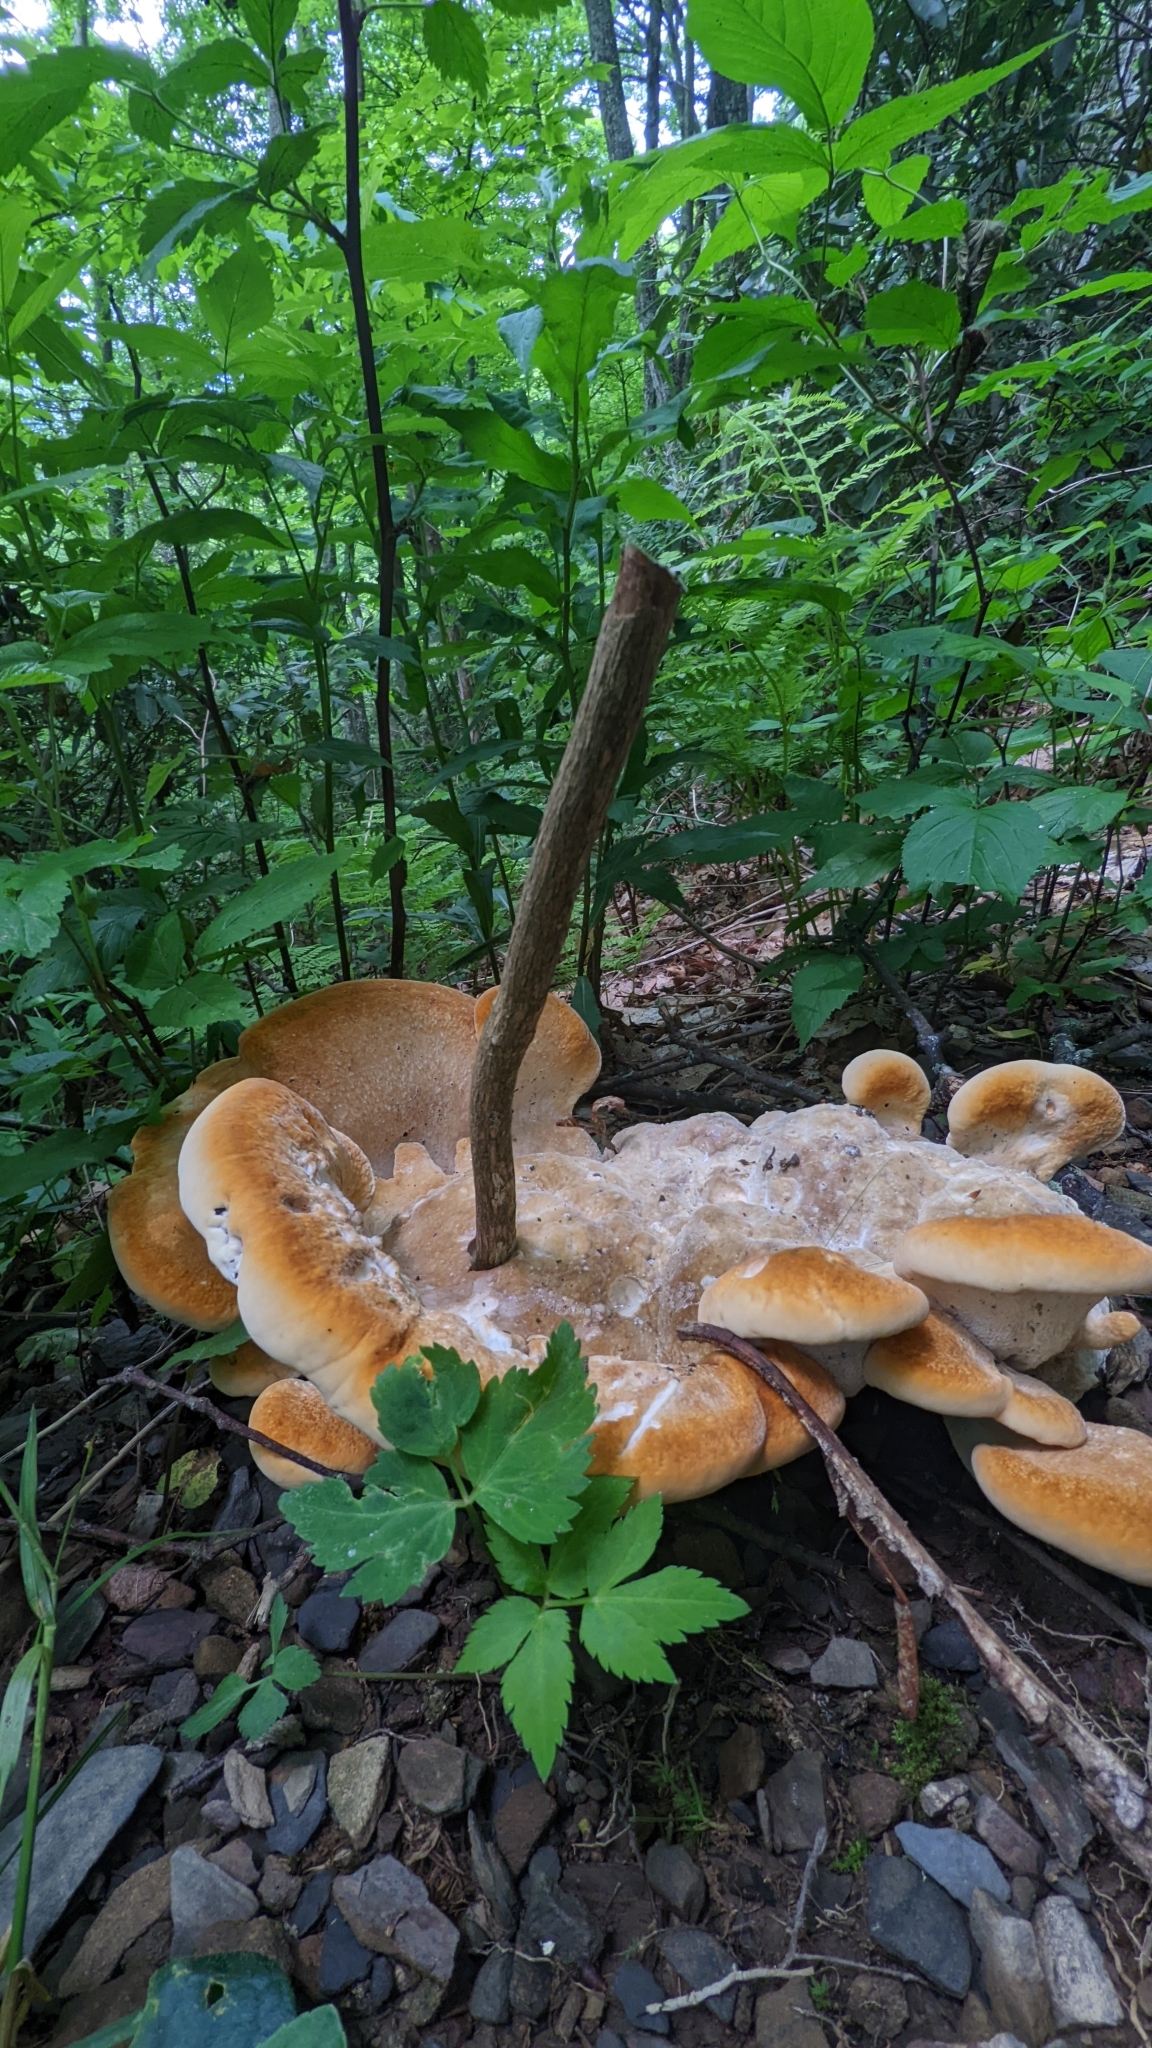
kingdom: Fungi
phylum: Basidiomycota
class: Agaricomycetes
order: Russulales
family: Bondarzewiaceae
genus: Bondarzewia
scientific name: Bondarzewia berkeleyi
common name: Berkeley's polypore
